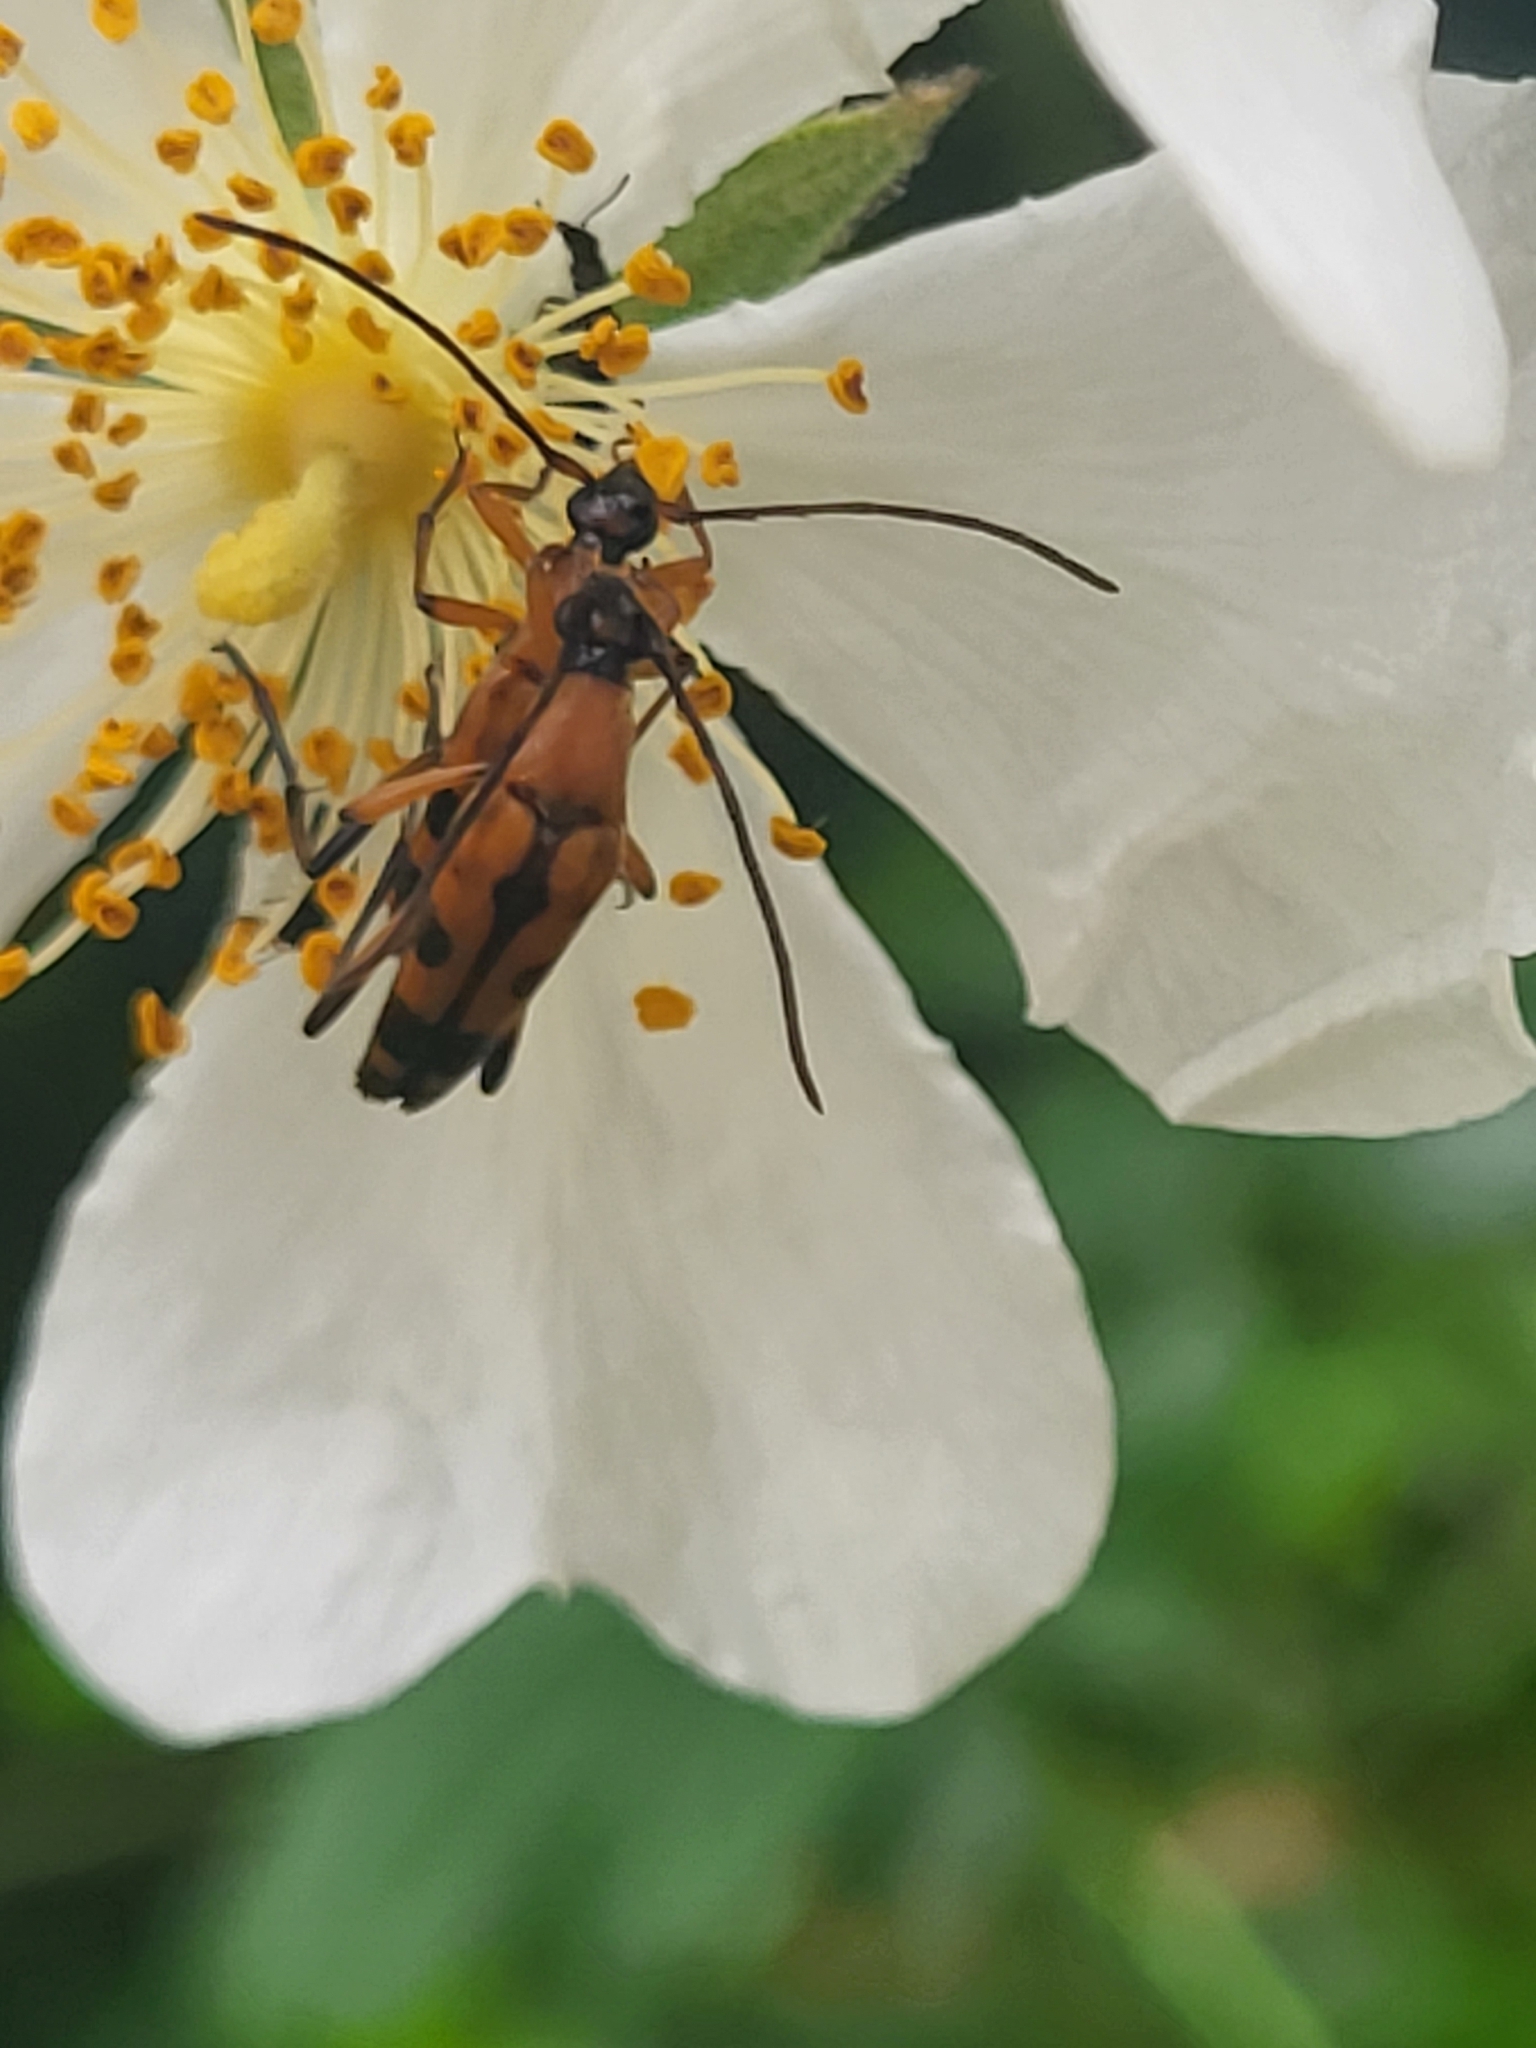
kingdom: Animalia
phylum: Arthropoda
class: Insecta
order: Coleoptera
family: Cerambycidae
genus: Stenurella
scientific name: Stenurella septempunctata
